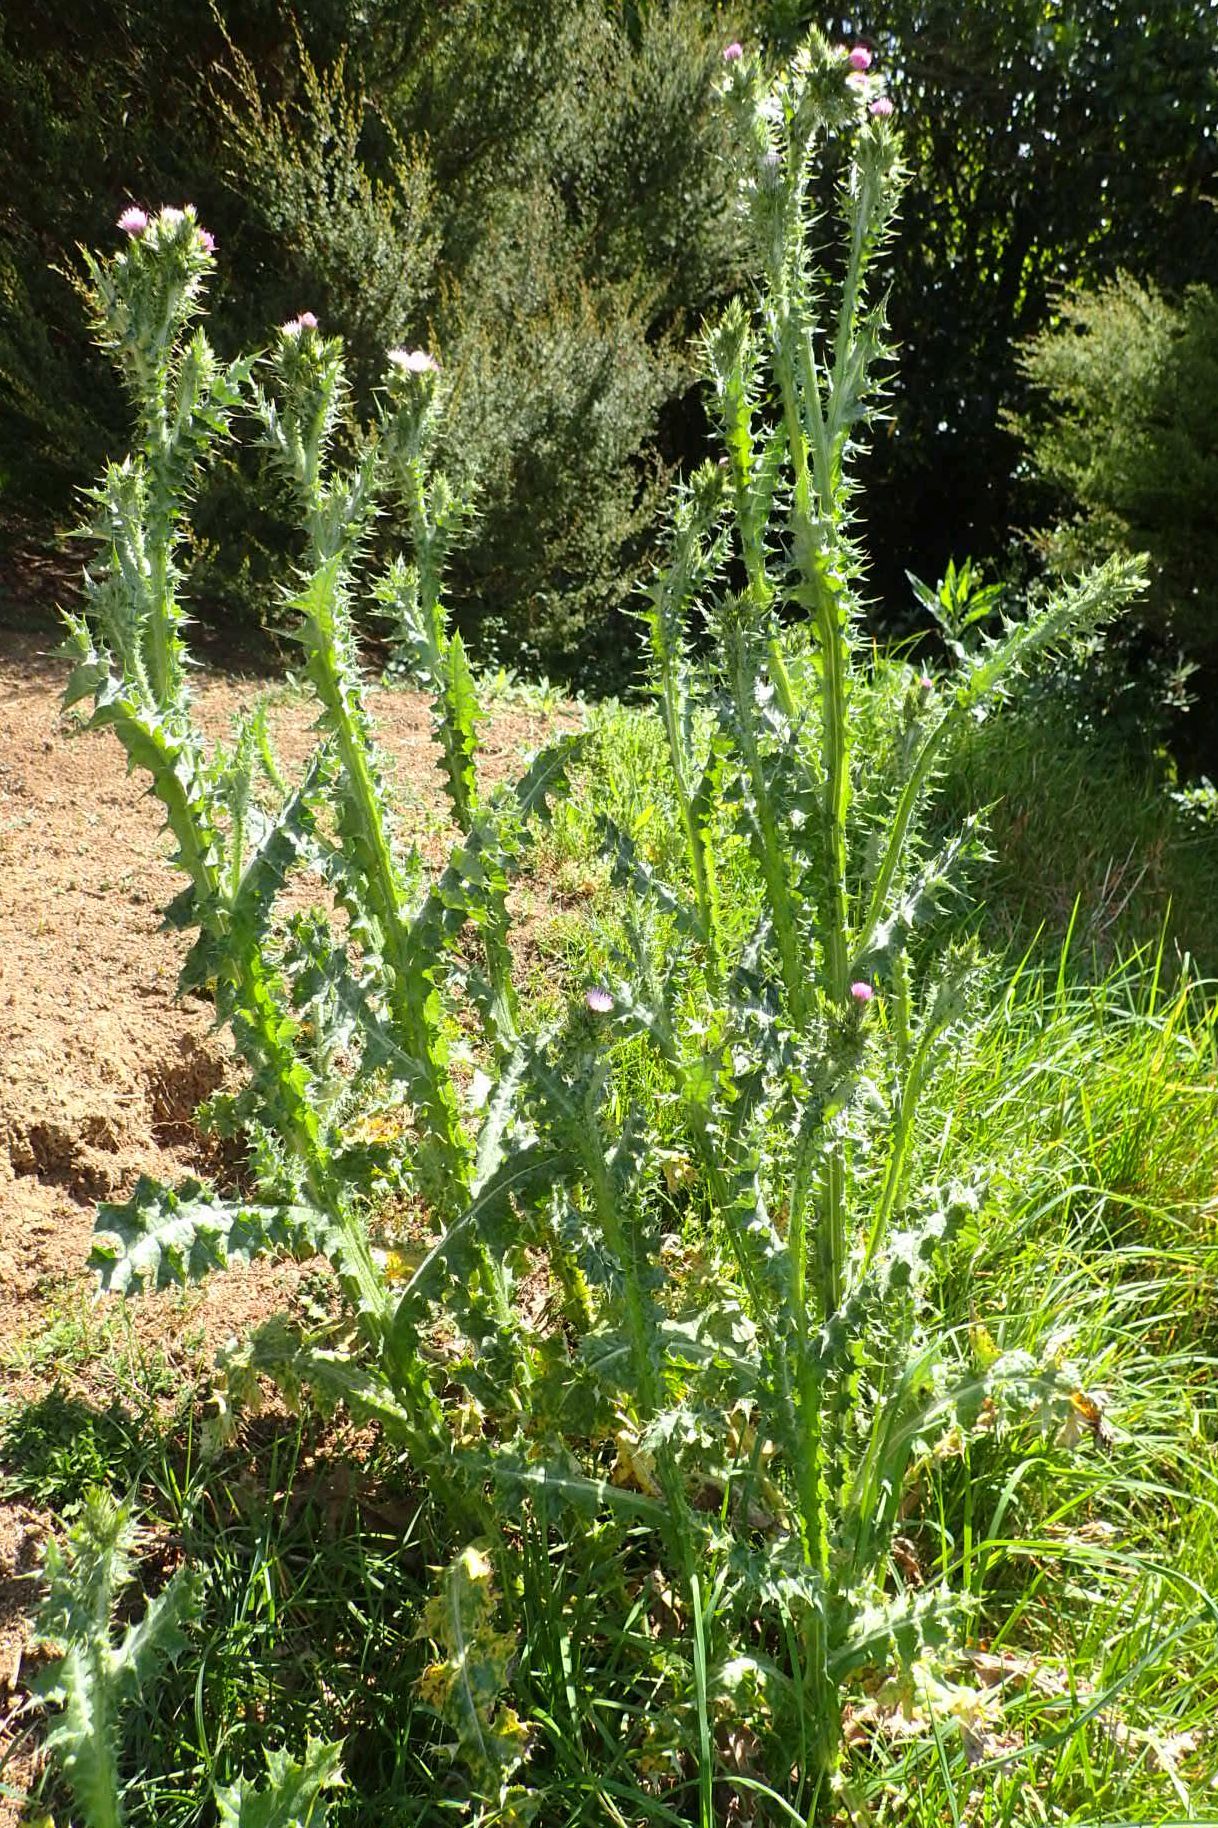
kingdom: Plantae
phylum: Tracheophyta
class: Magnoliopsida
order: Asterales
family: Asteraceae
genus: Carduus
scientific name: Carduus tenuiflorus
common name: Slender thistle
